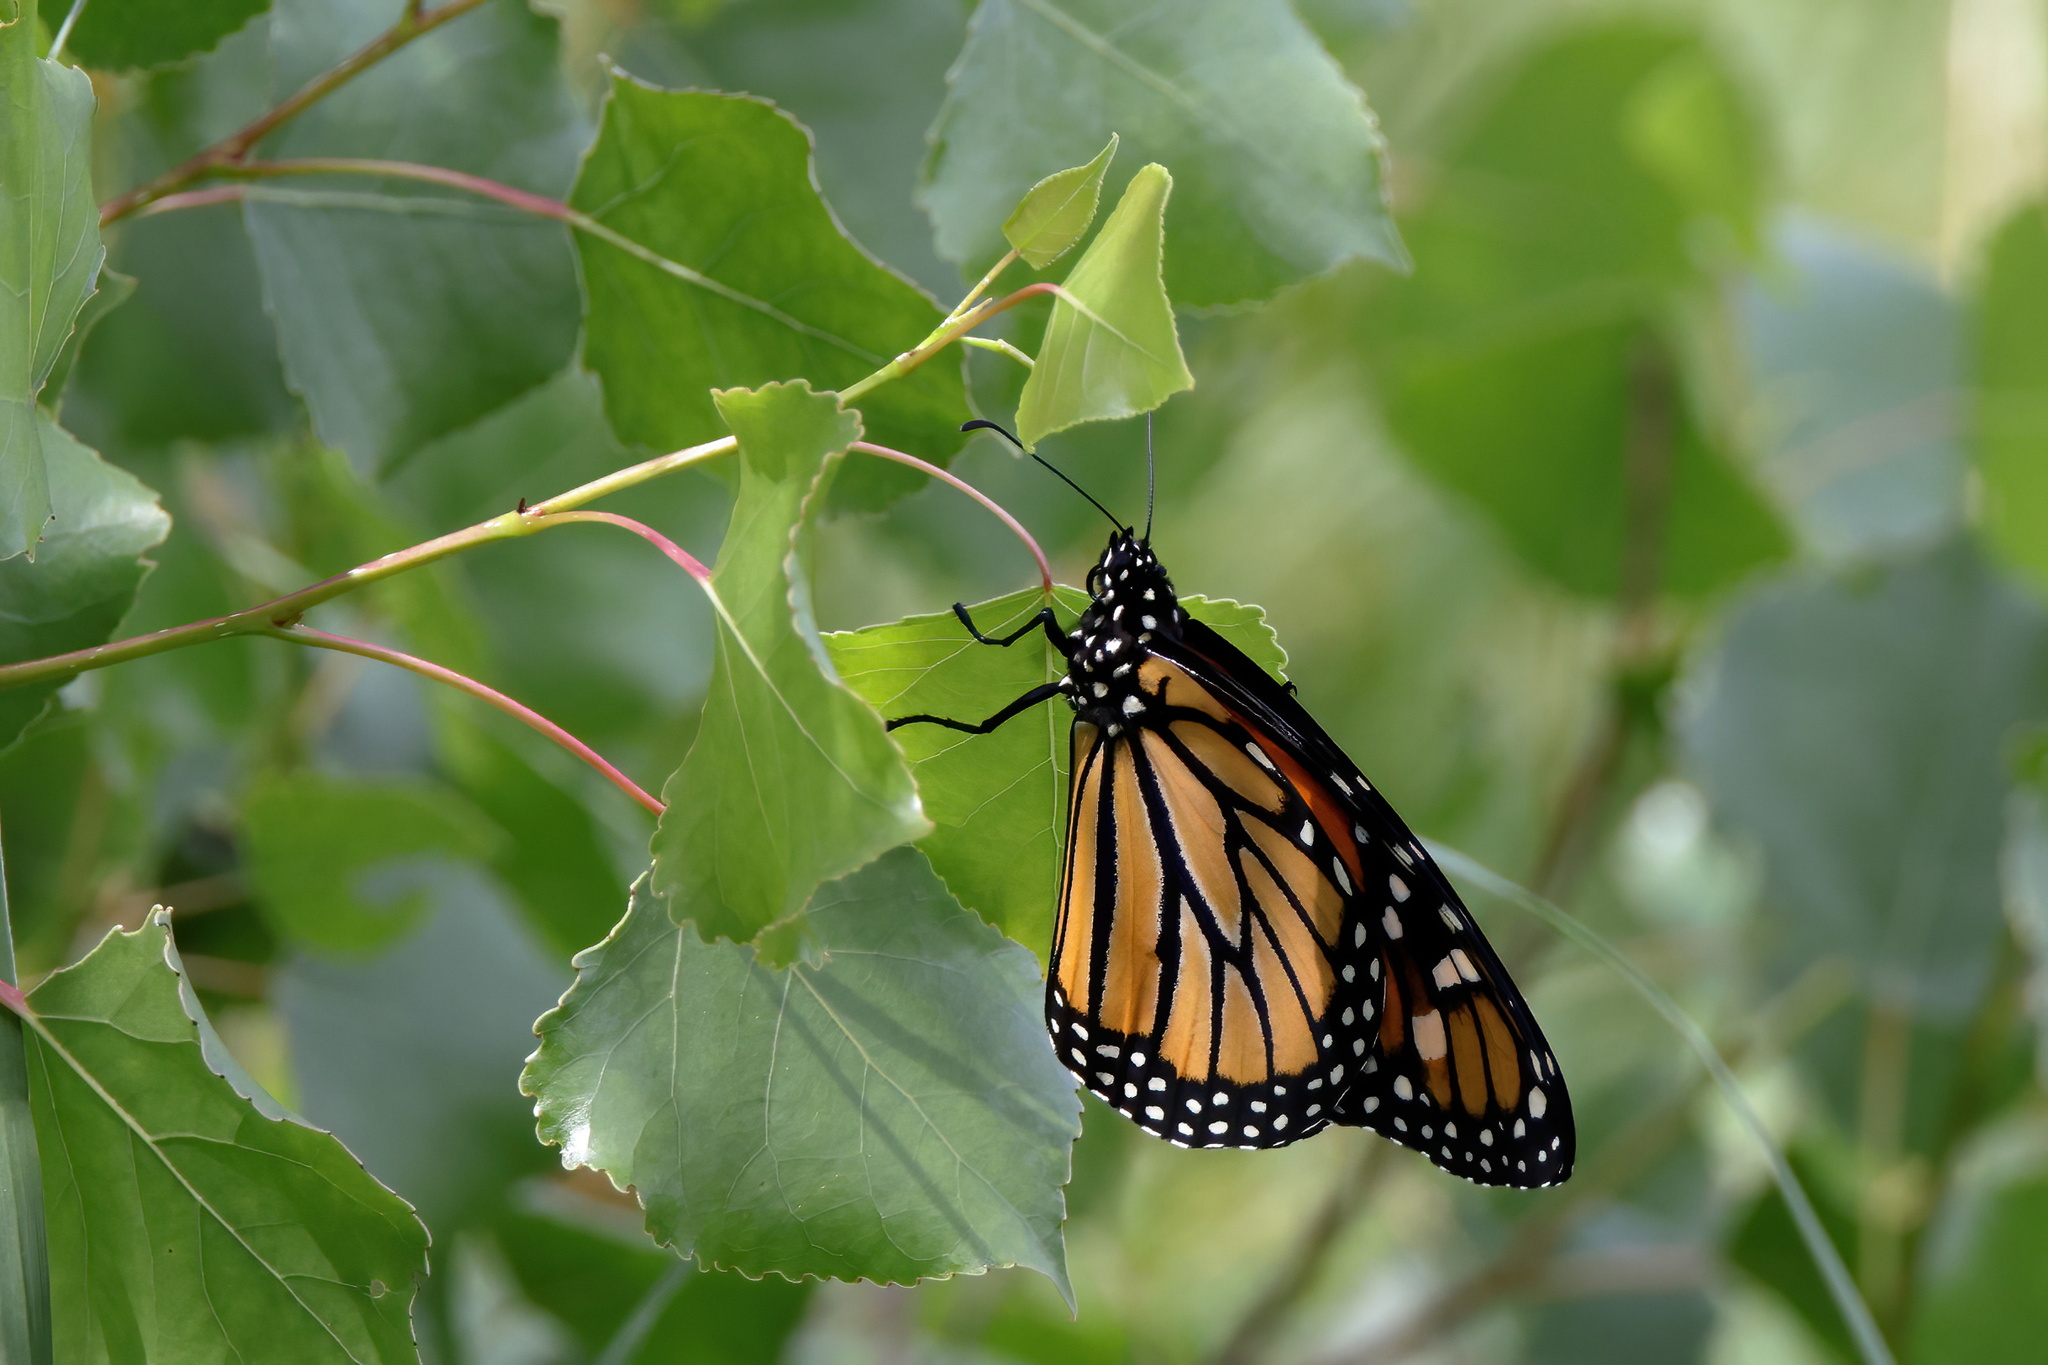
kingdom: Animalia
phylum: Arthropoda
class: Insecta
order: Lepidoptera
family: Nymphalidae
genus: Danaus
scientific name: Danaus plexippus
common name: Monarch
